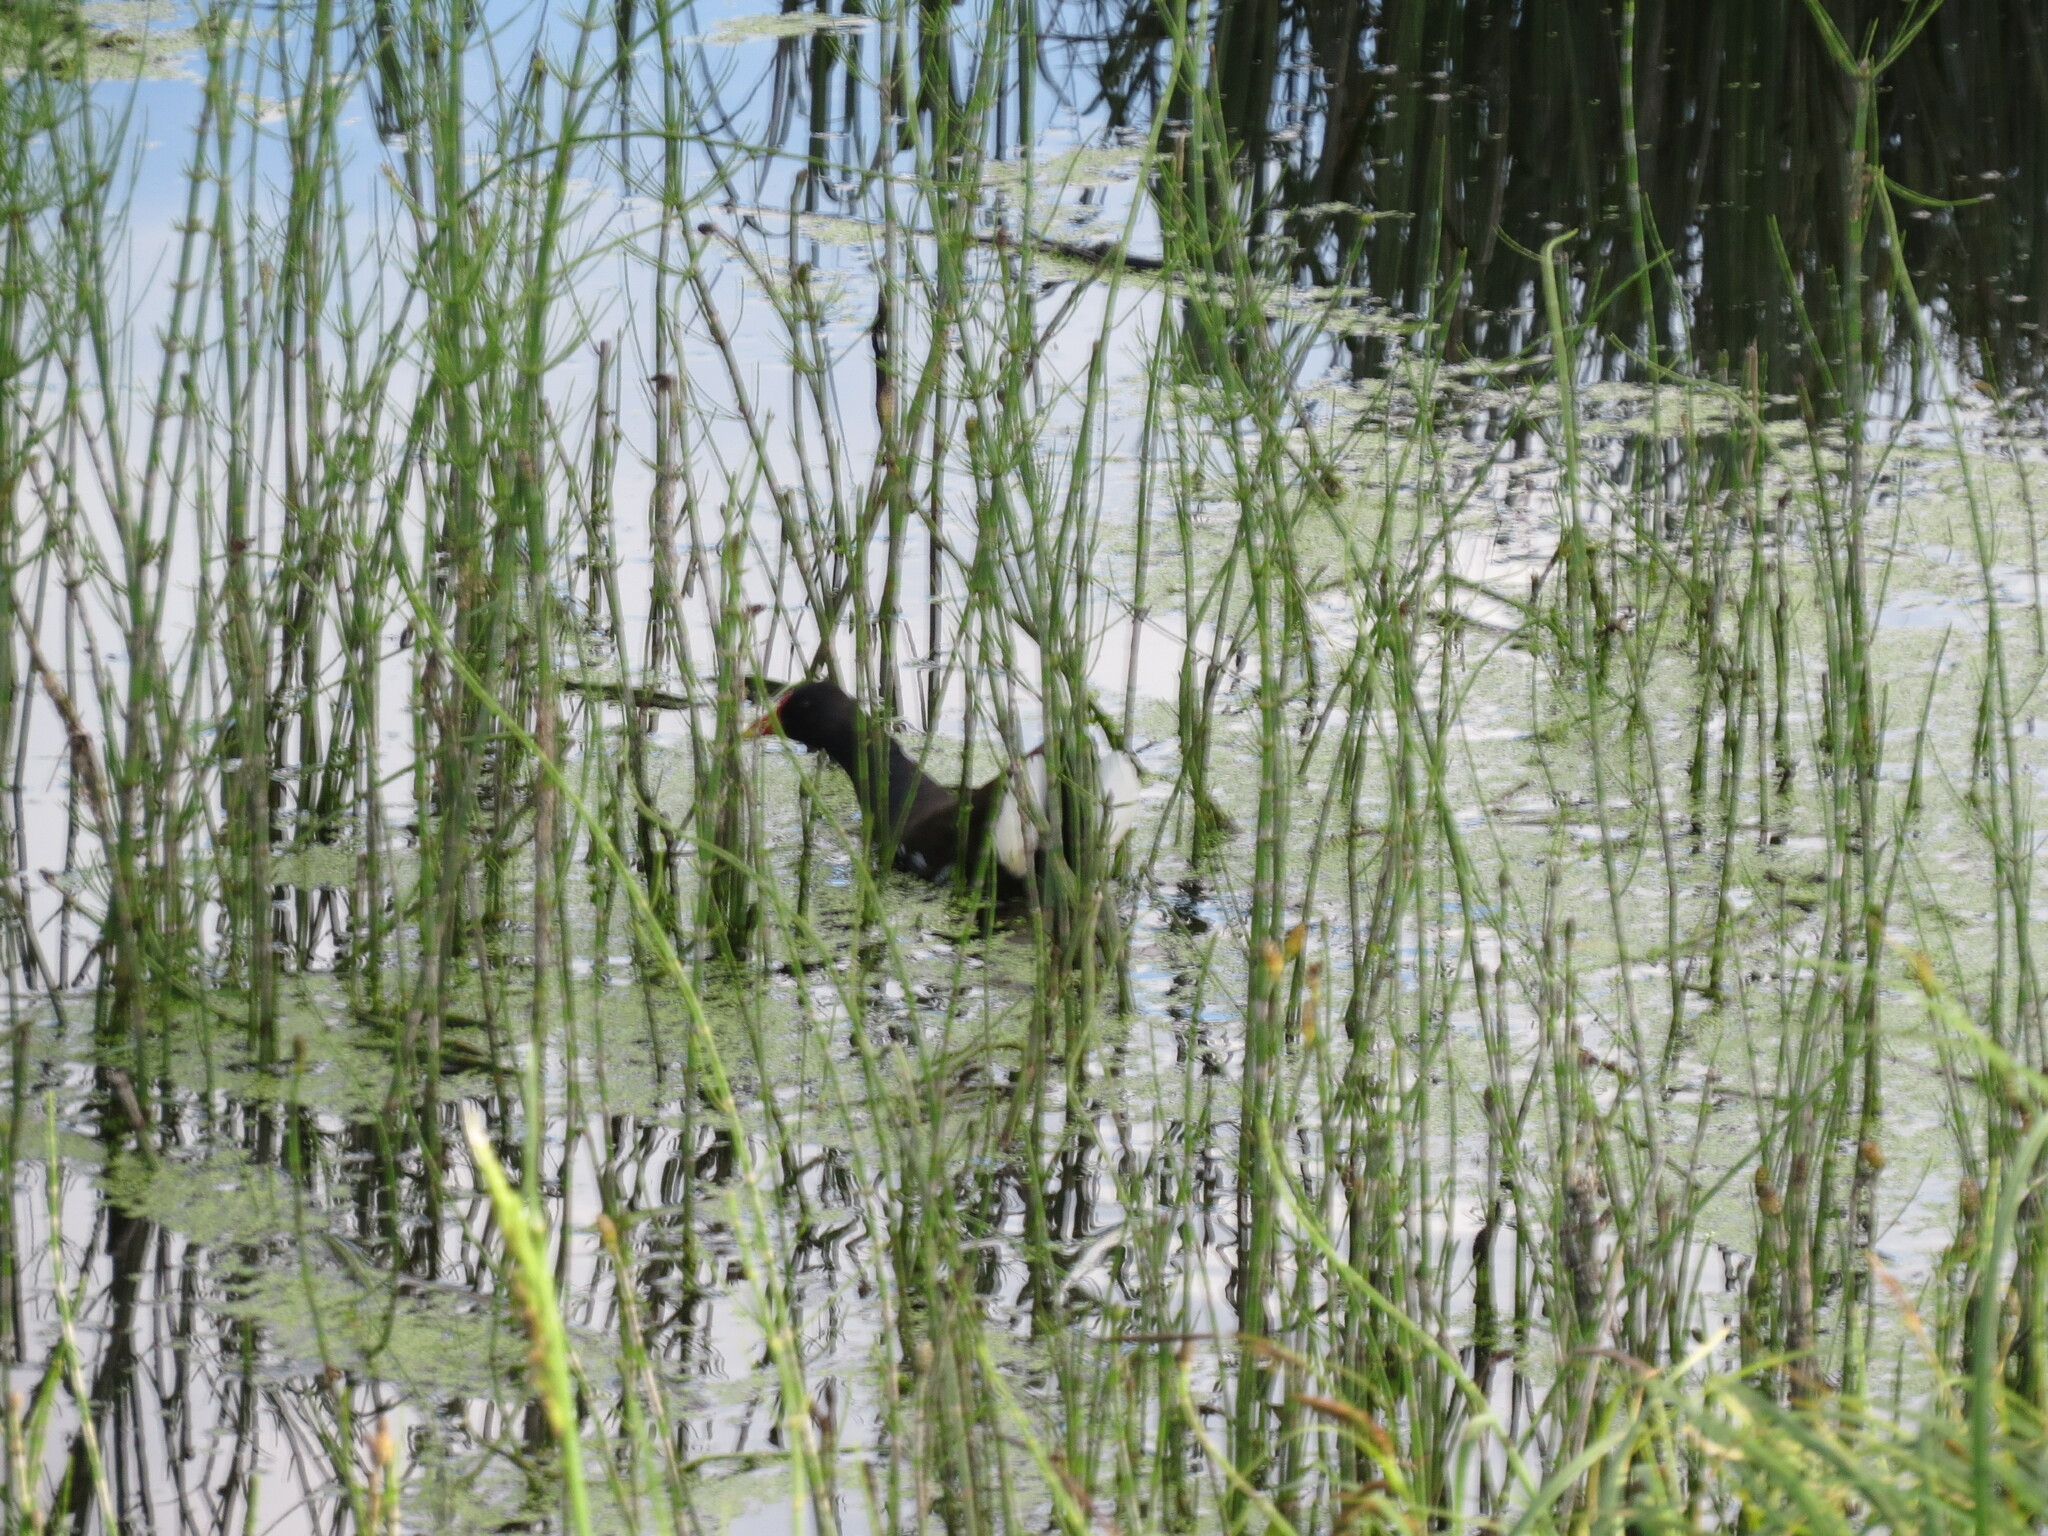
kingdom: Animalia
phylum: Chordata
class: Aves
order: Gruiformes
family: Rallidae
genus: Gallinula
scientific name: Gallinula chloropus
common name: Common moorhen
